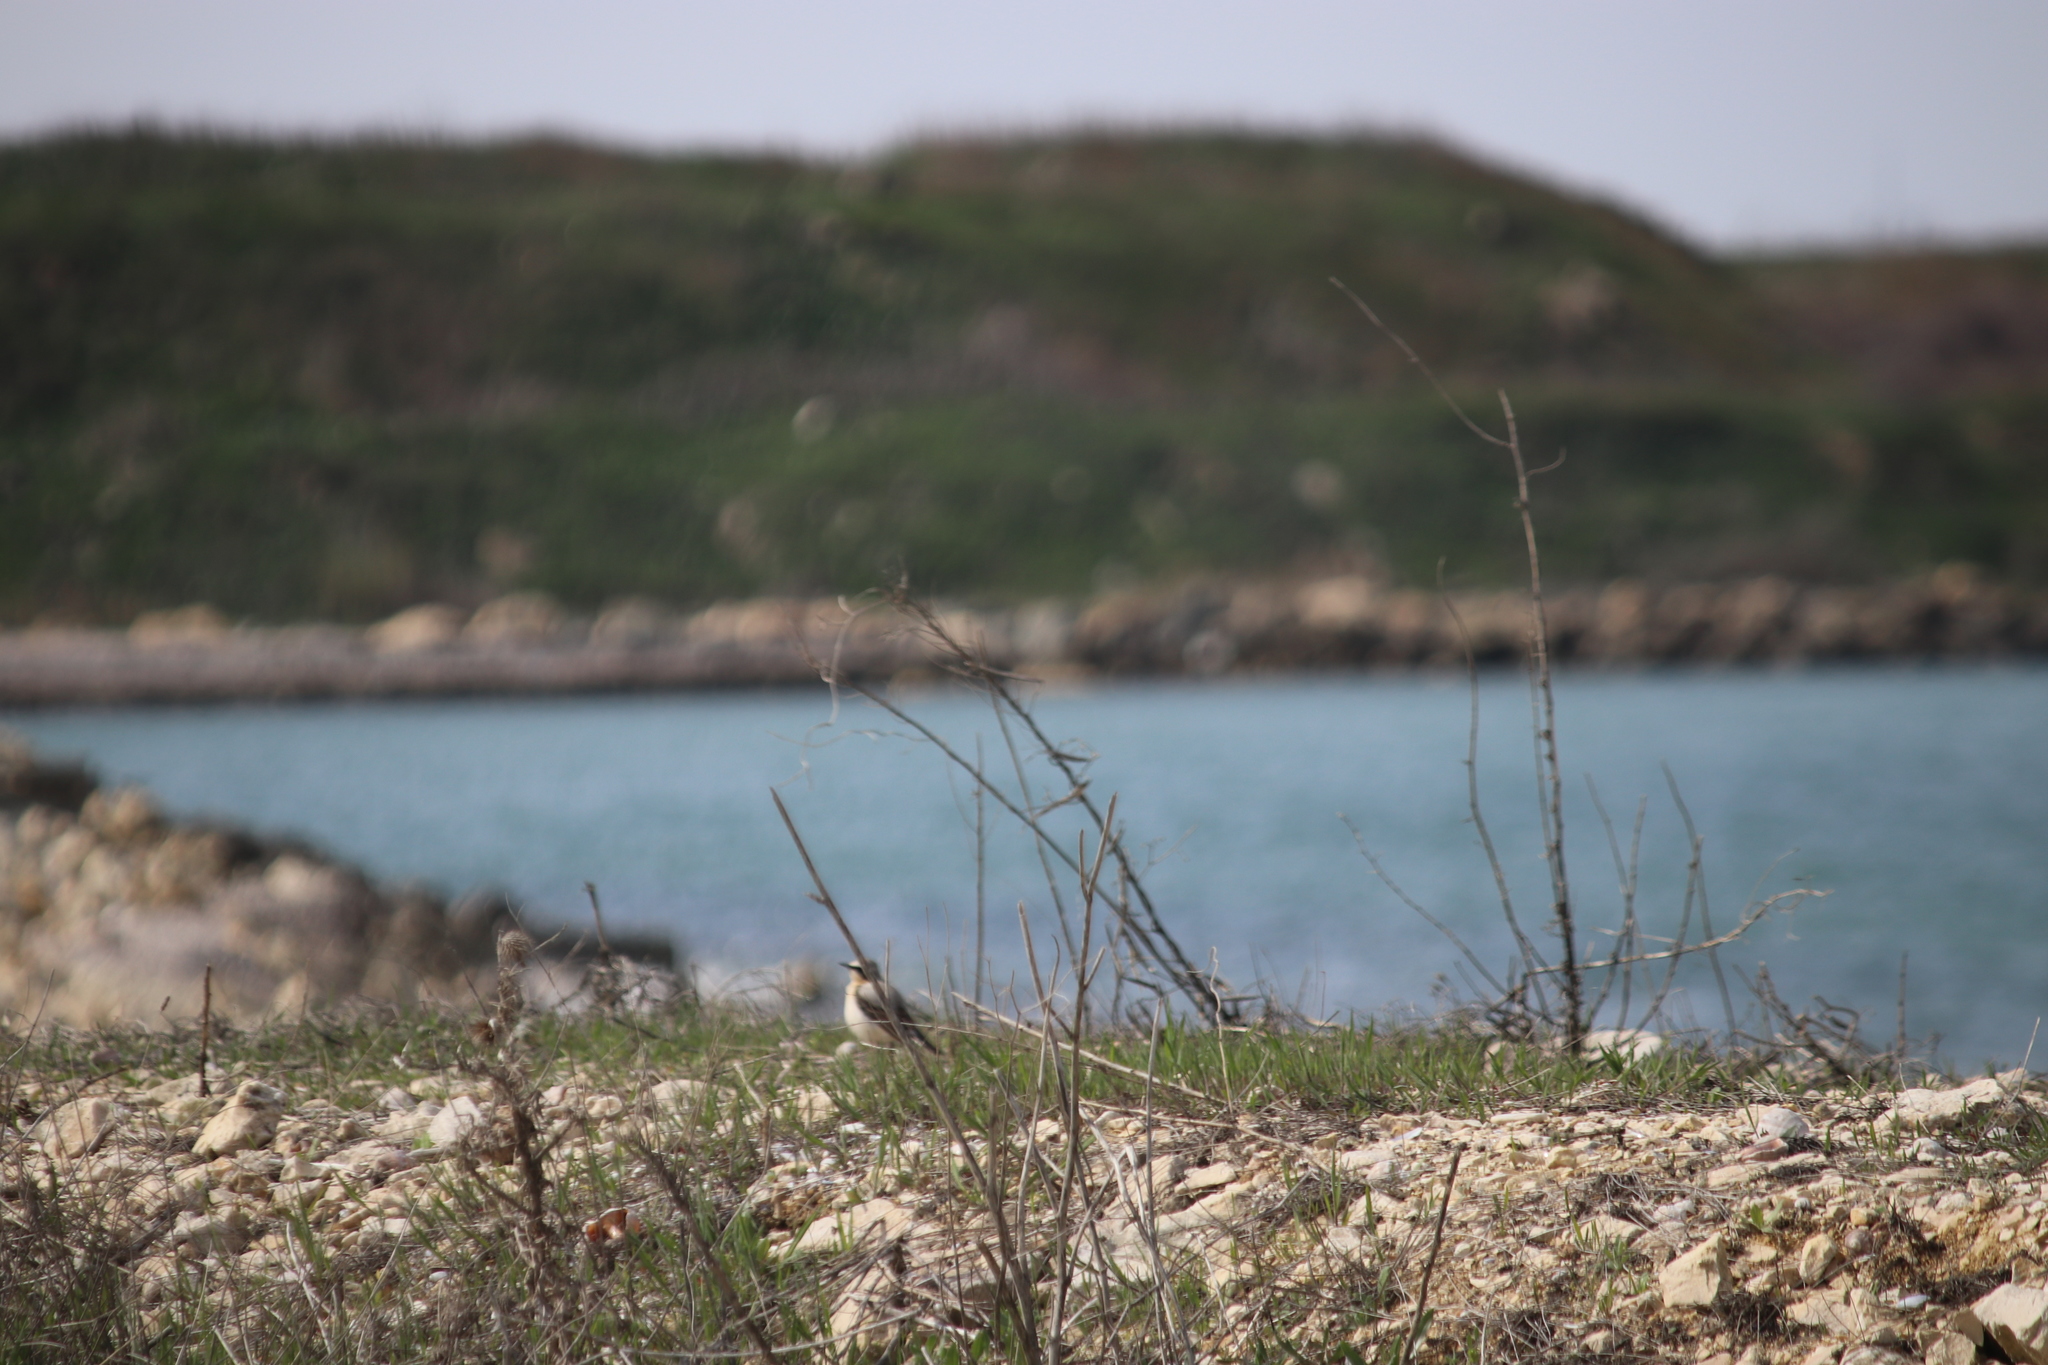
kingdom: Animalia
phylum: Chordata
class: Aves
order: Passeriformes
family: Muscicapidae
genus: Oenanthe
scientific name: Oenanthe oenanthe
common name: Northern wheatear
